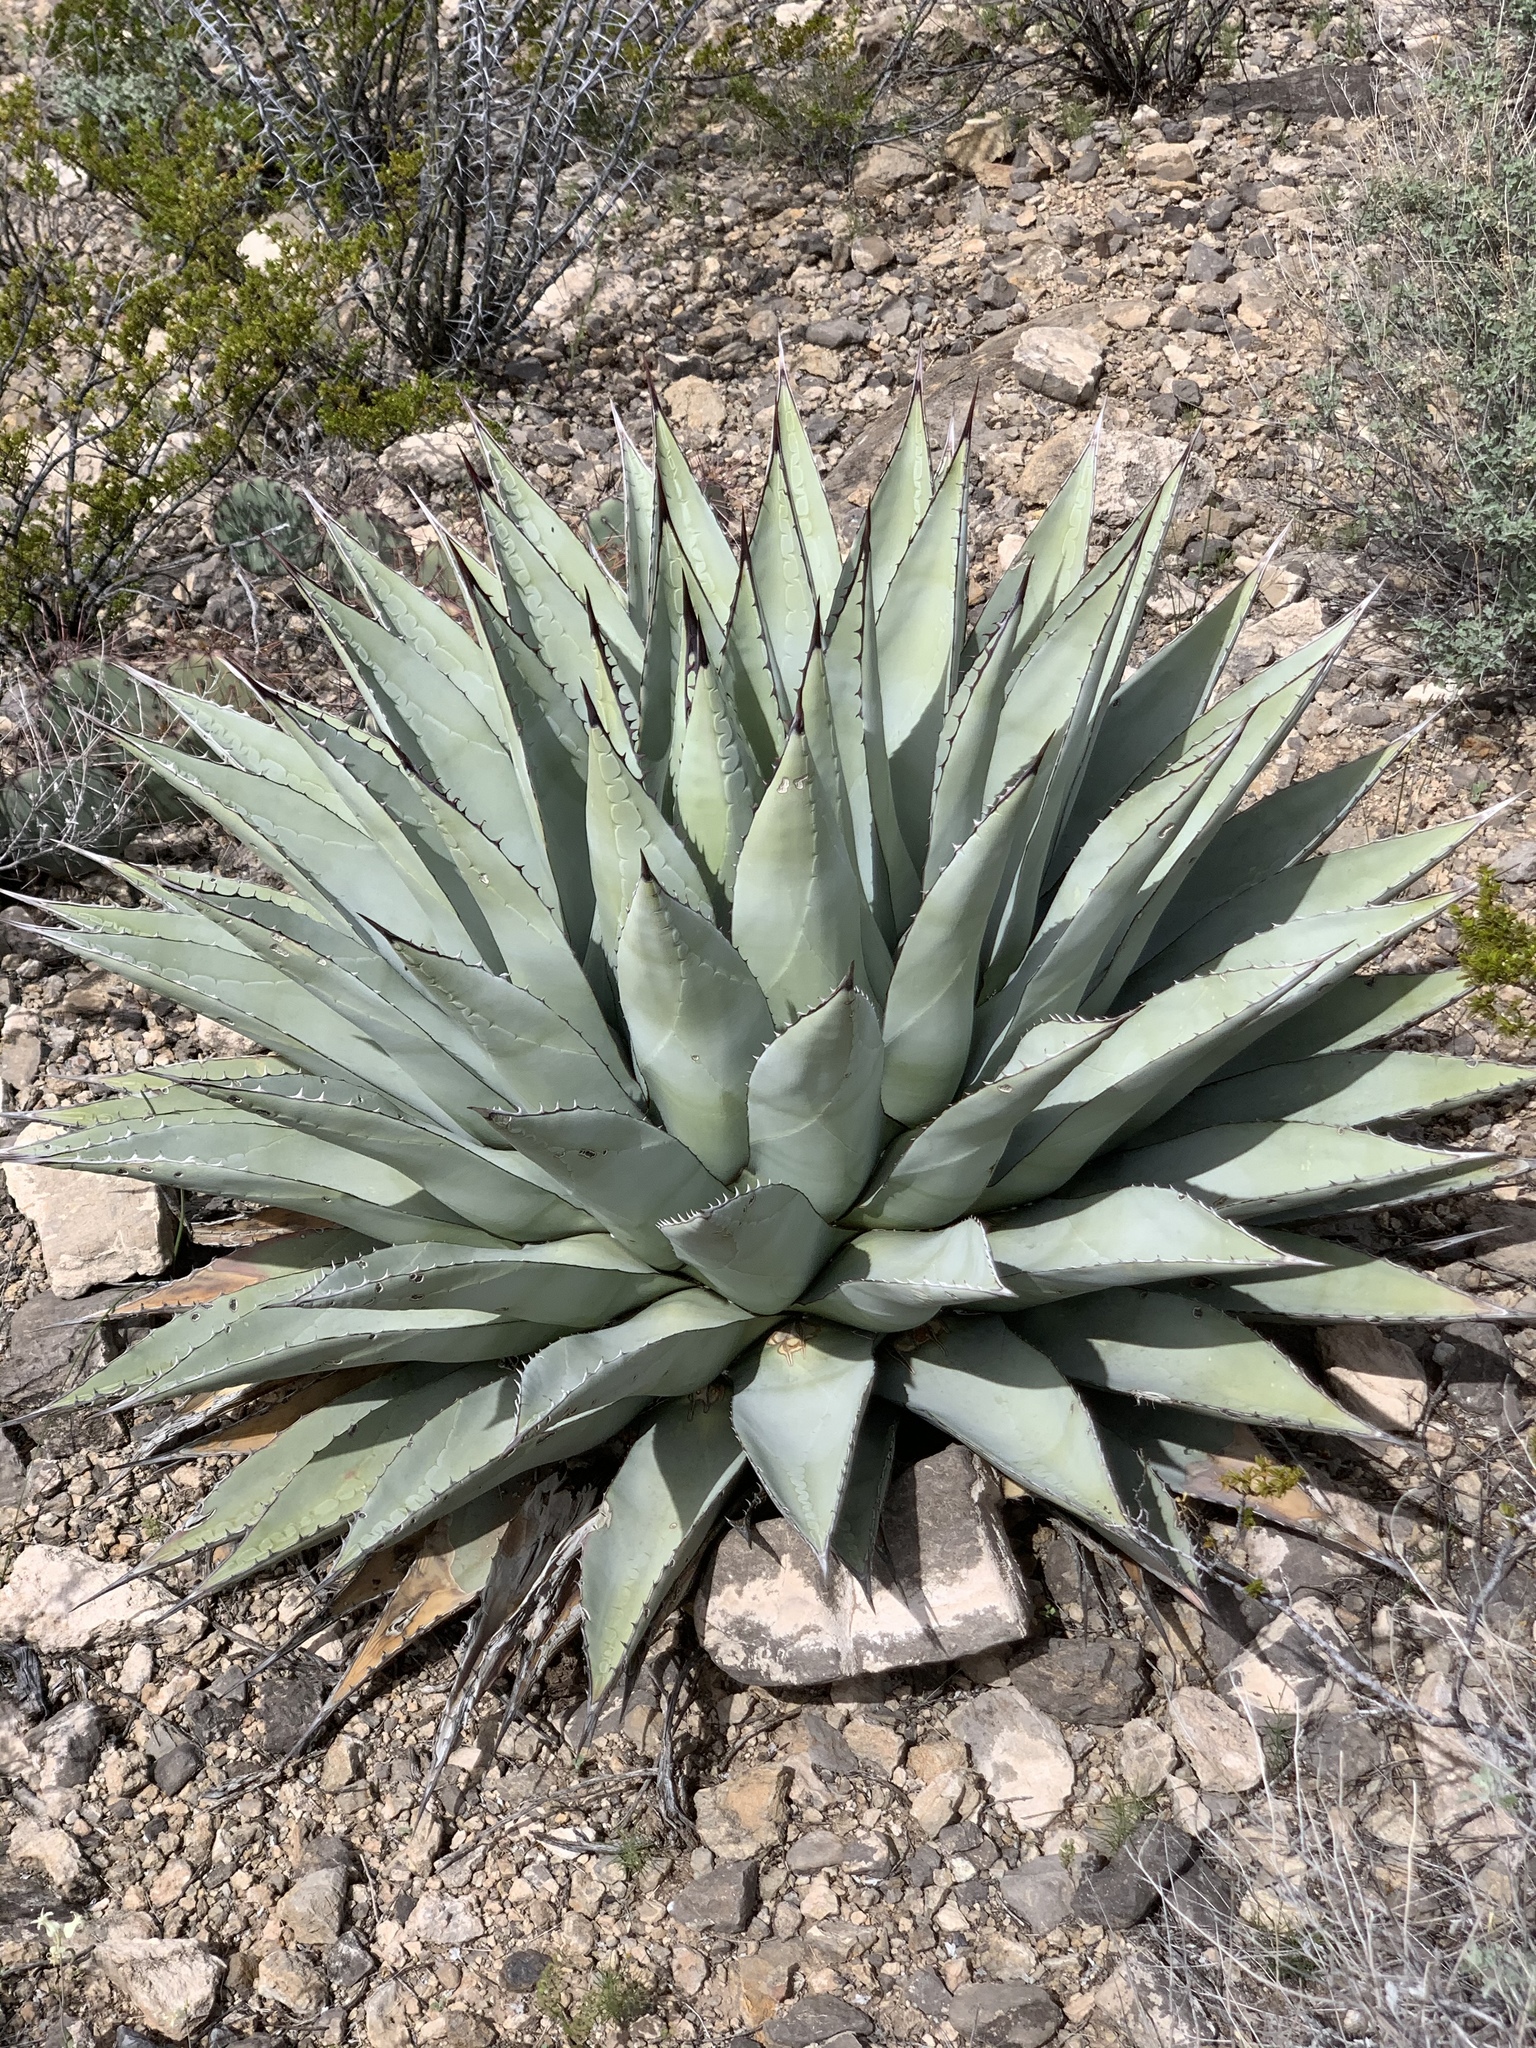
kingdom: Plantae
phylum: Tracheophyta
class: Liliopsida
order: Asparagales
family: Asparagaceae
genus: Agave
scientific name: Agave parryi
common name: Parry's agave
